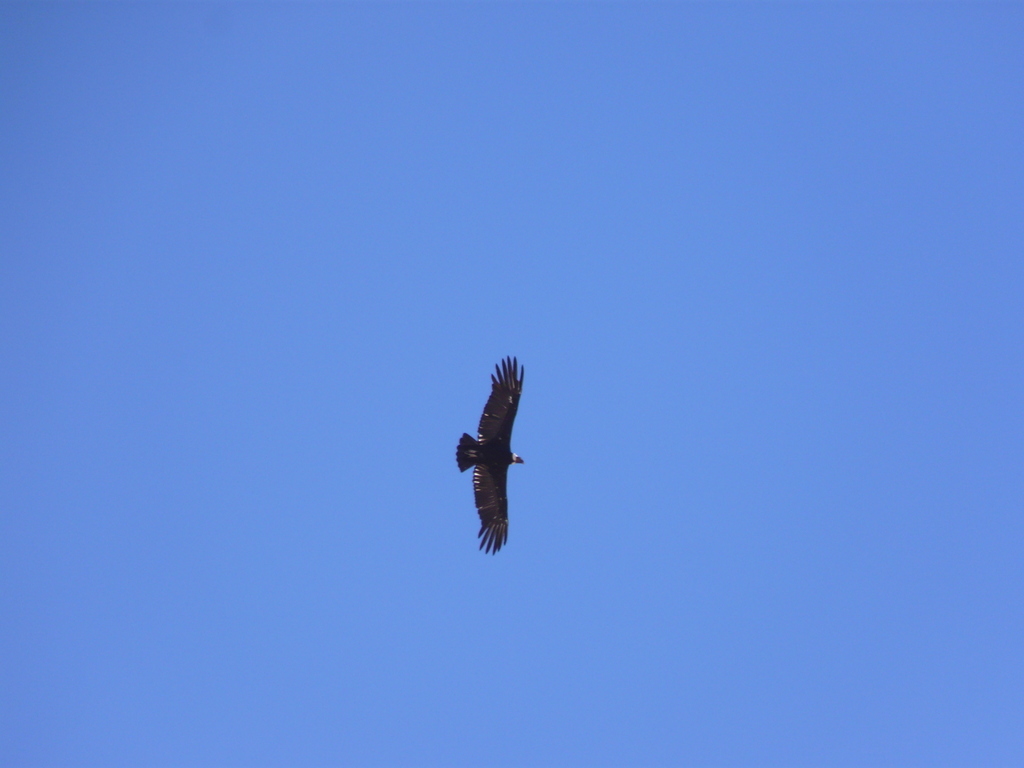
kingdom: Animalia
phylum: Chordata
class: Aves
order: Accipitriformes
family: Cathartidae
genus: Vultur
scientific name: Vultur gryphus
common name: Andean condor
